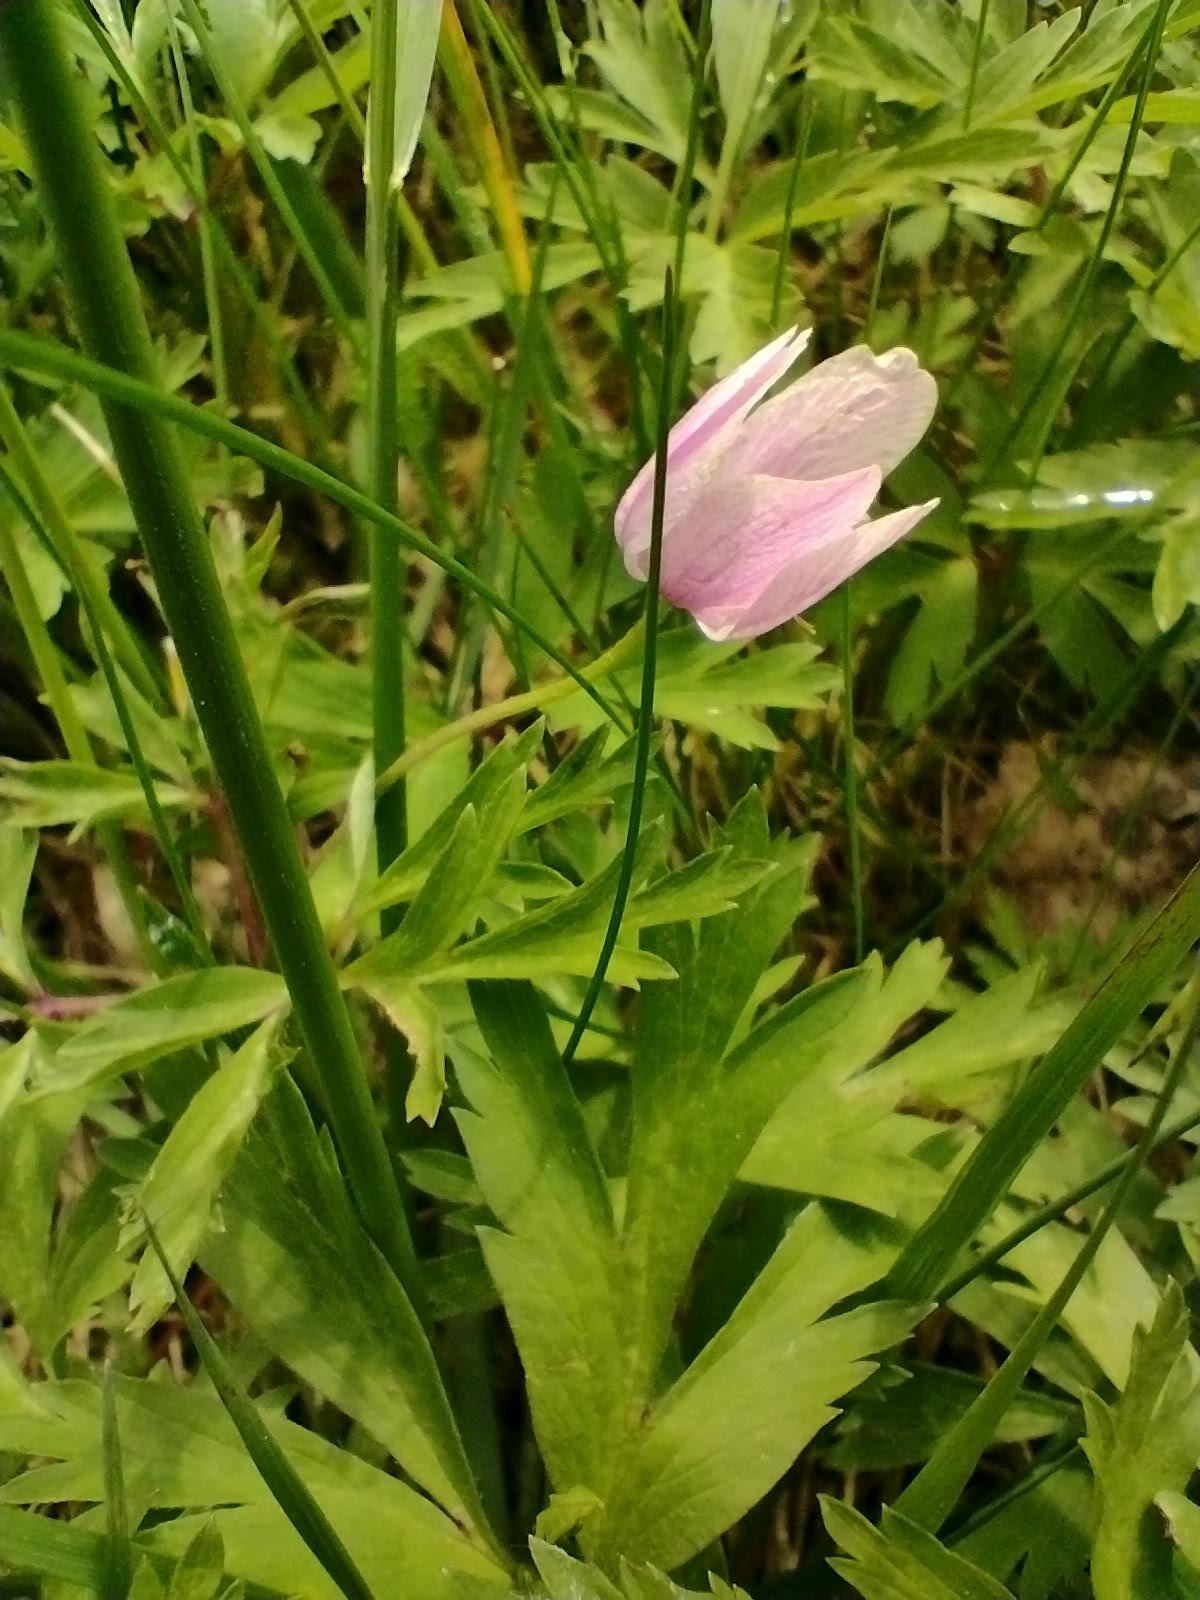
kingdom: Plantae
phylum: Tracheophyta
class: Magnoliopsida
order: Ranunculales
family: Ranunculaceae
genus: Anemone
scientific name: Anemone nemorosa
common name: Wood anemone
